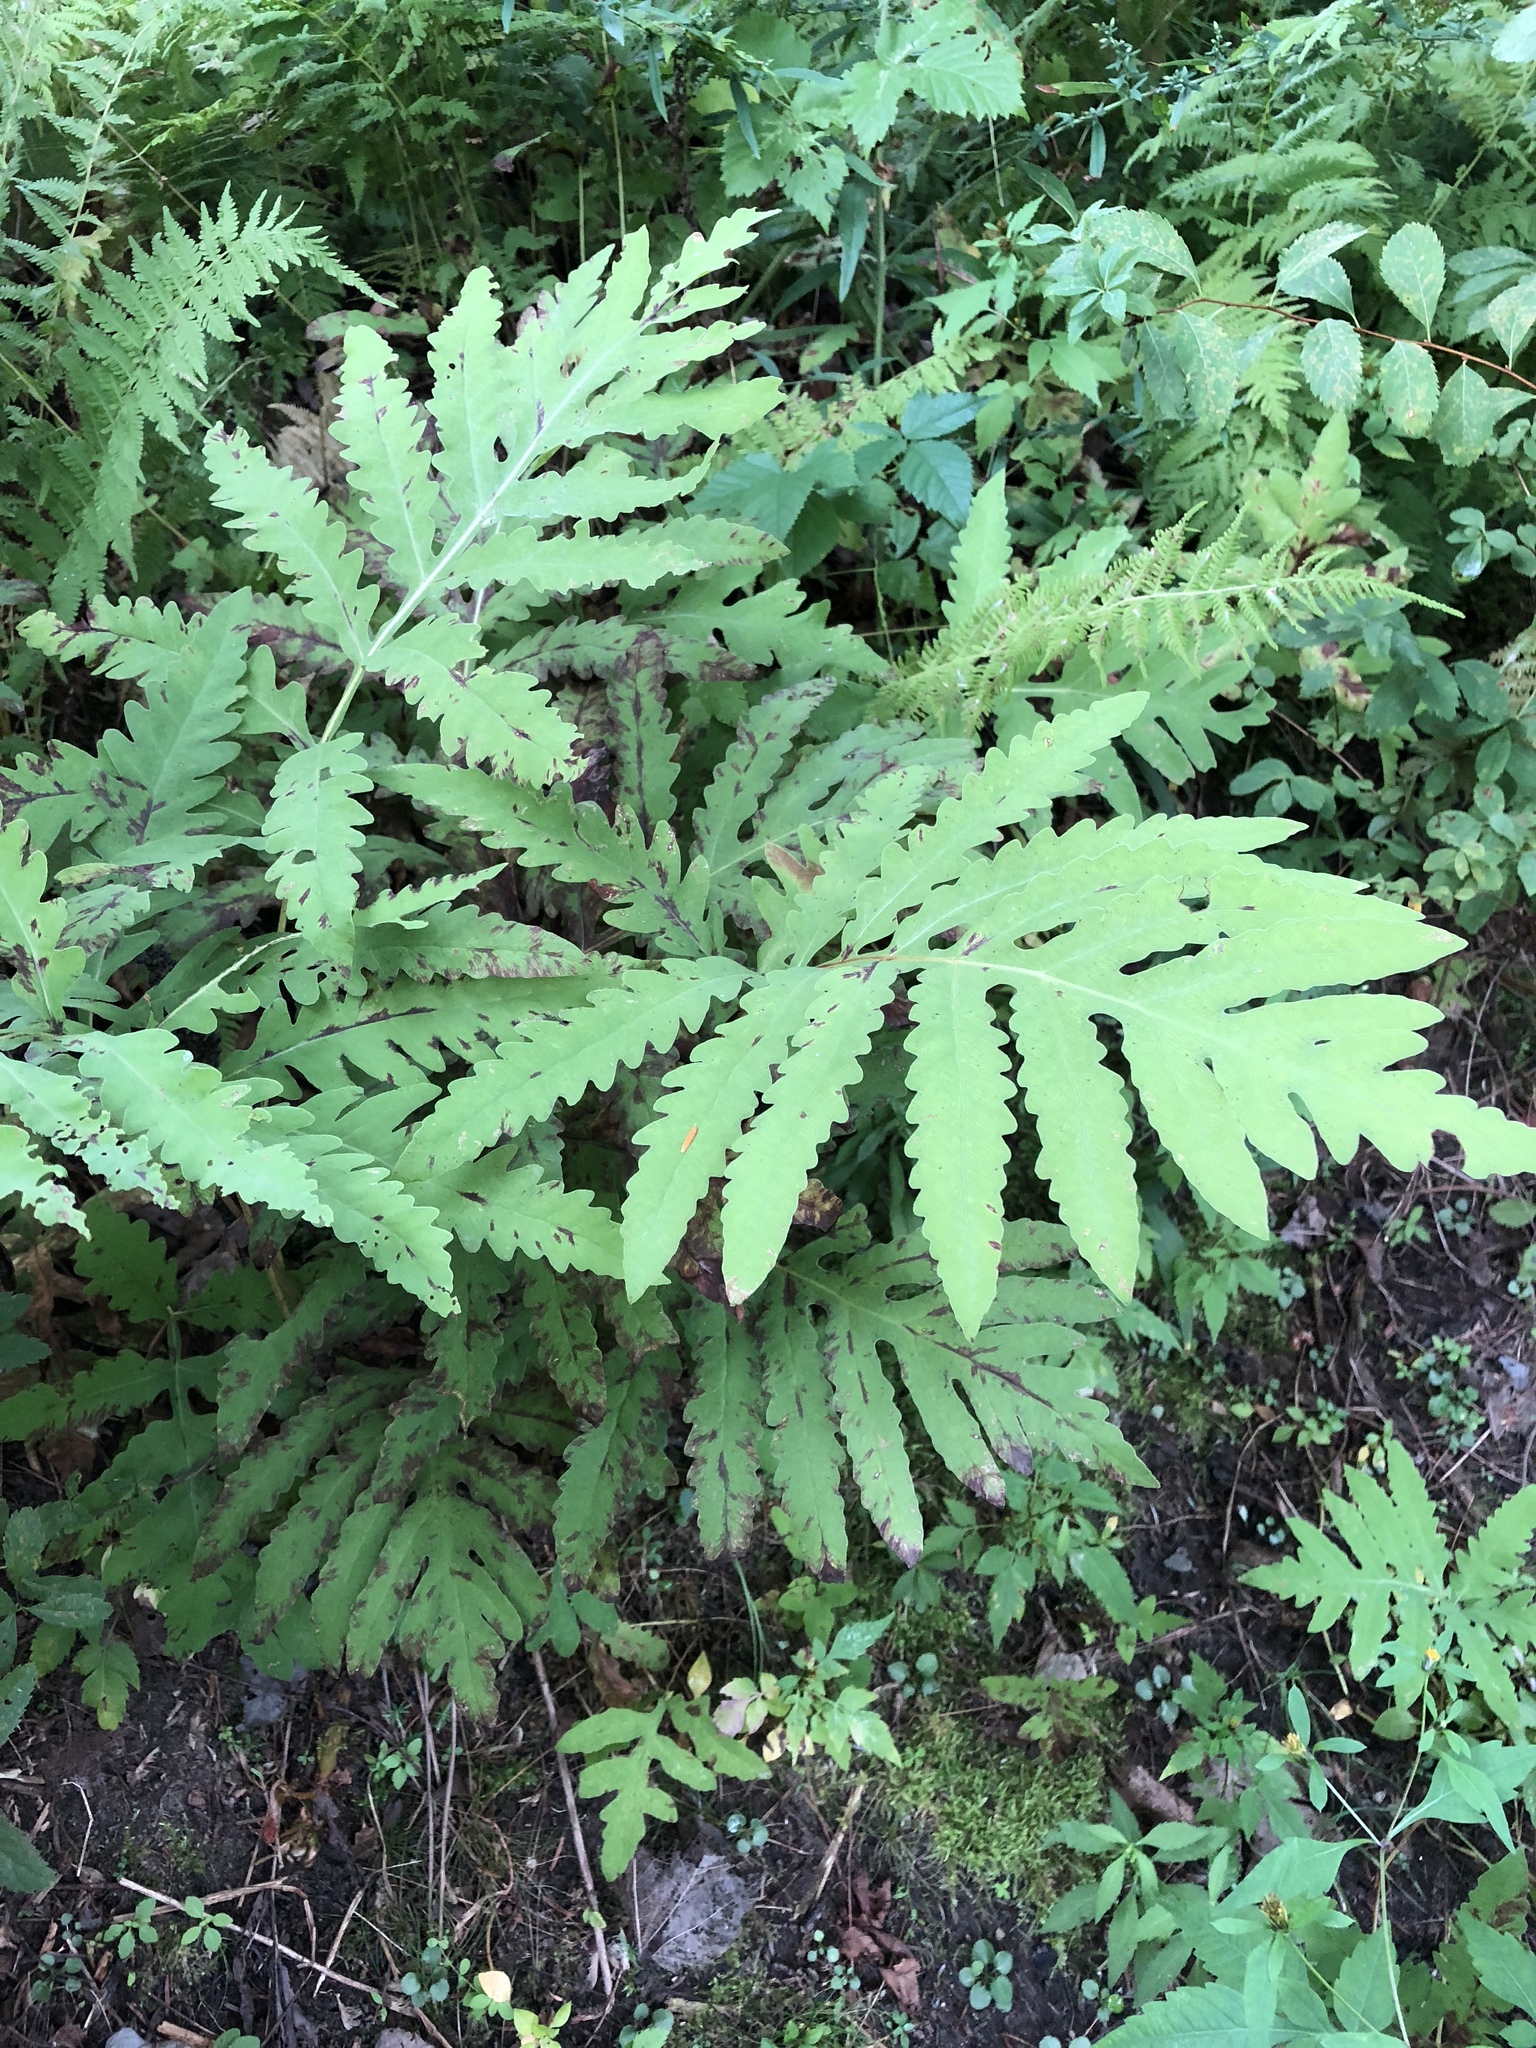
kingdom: Plantae
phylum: Tracheophyta
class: Polypodiopsida
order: Polypodiales
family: Onocleaceae
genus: Onoclea
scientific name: Onoclea sensibilis
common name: Sensitive fern
